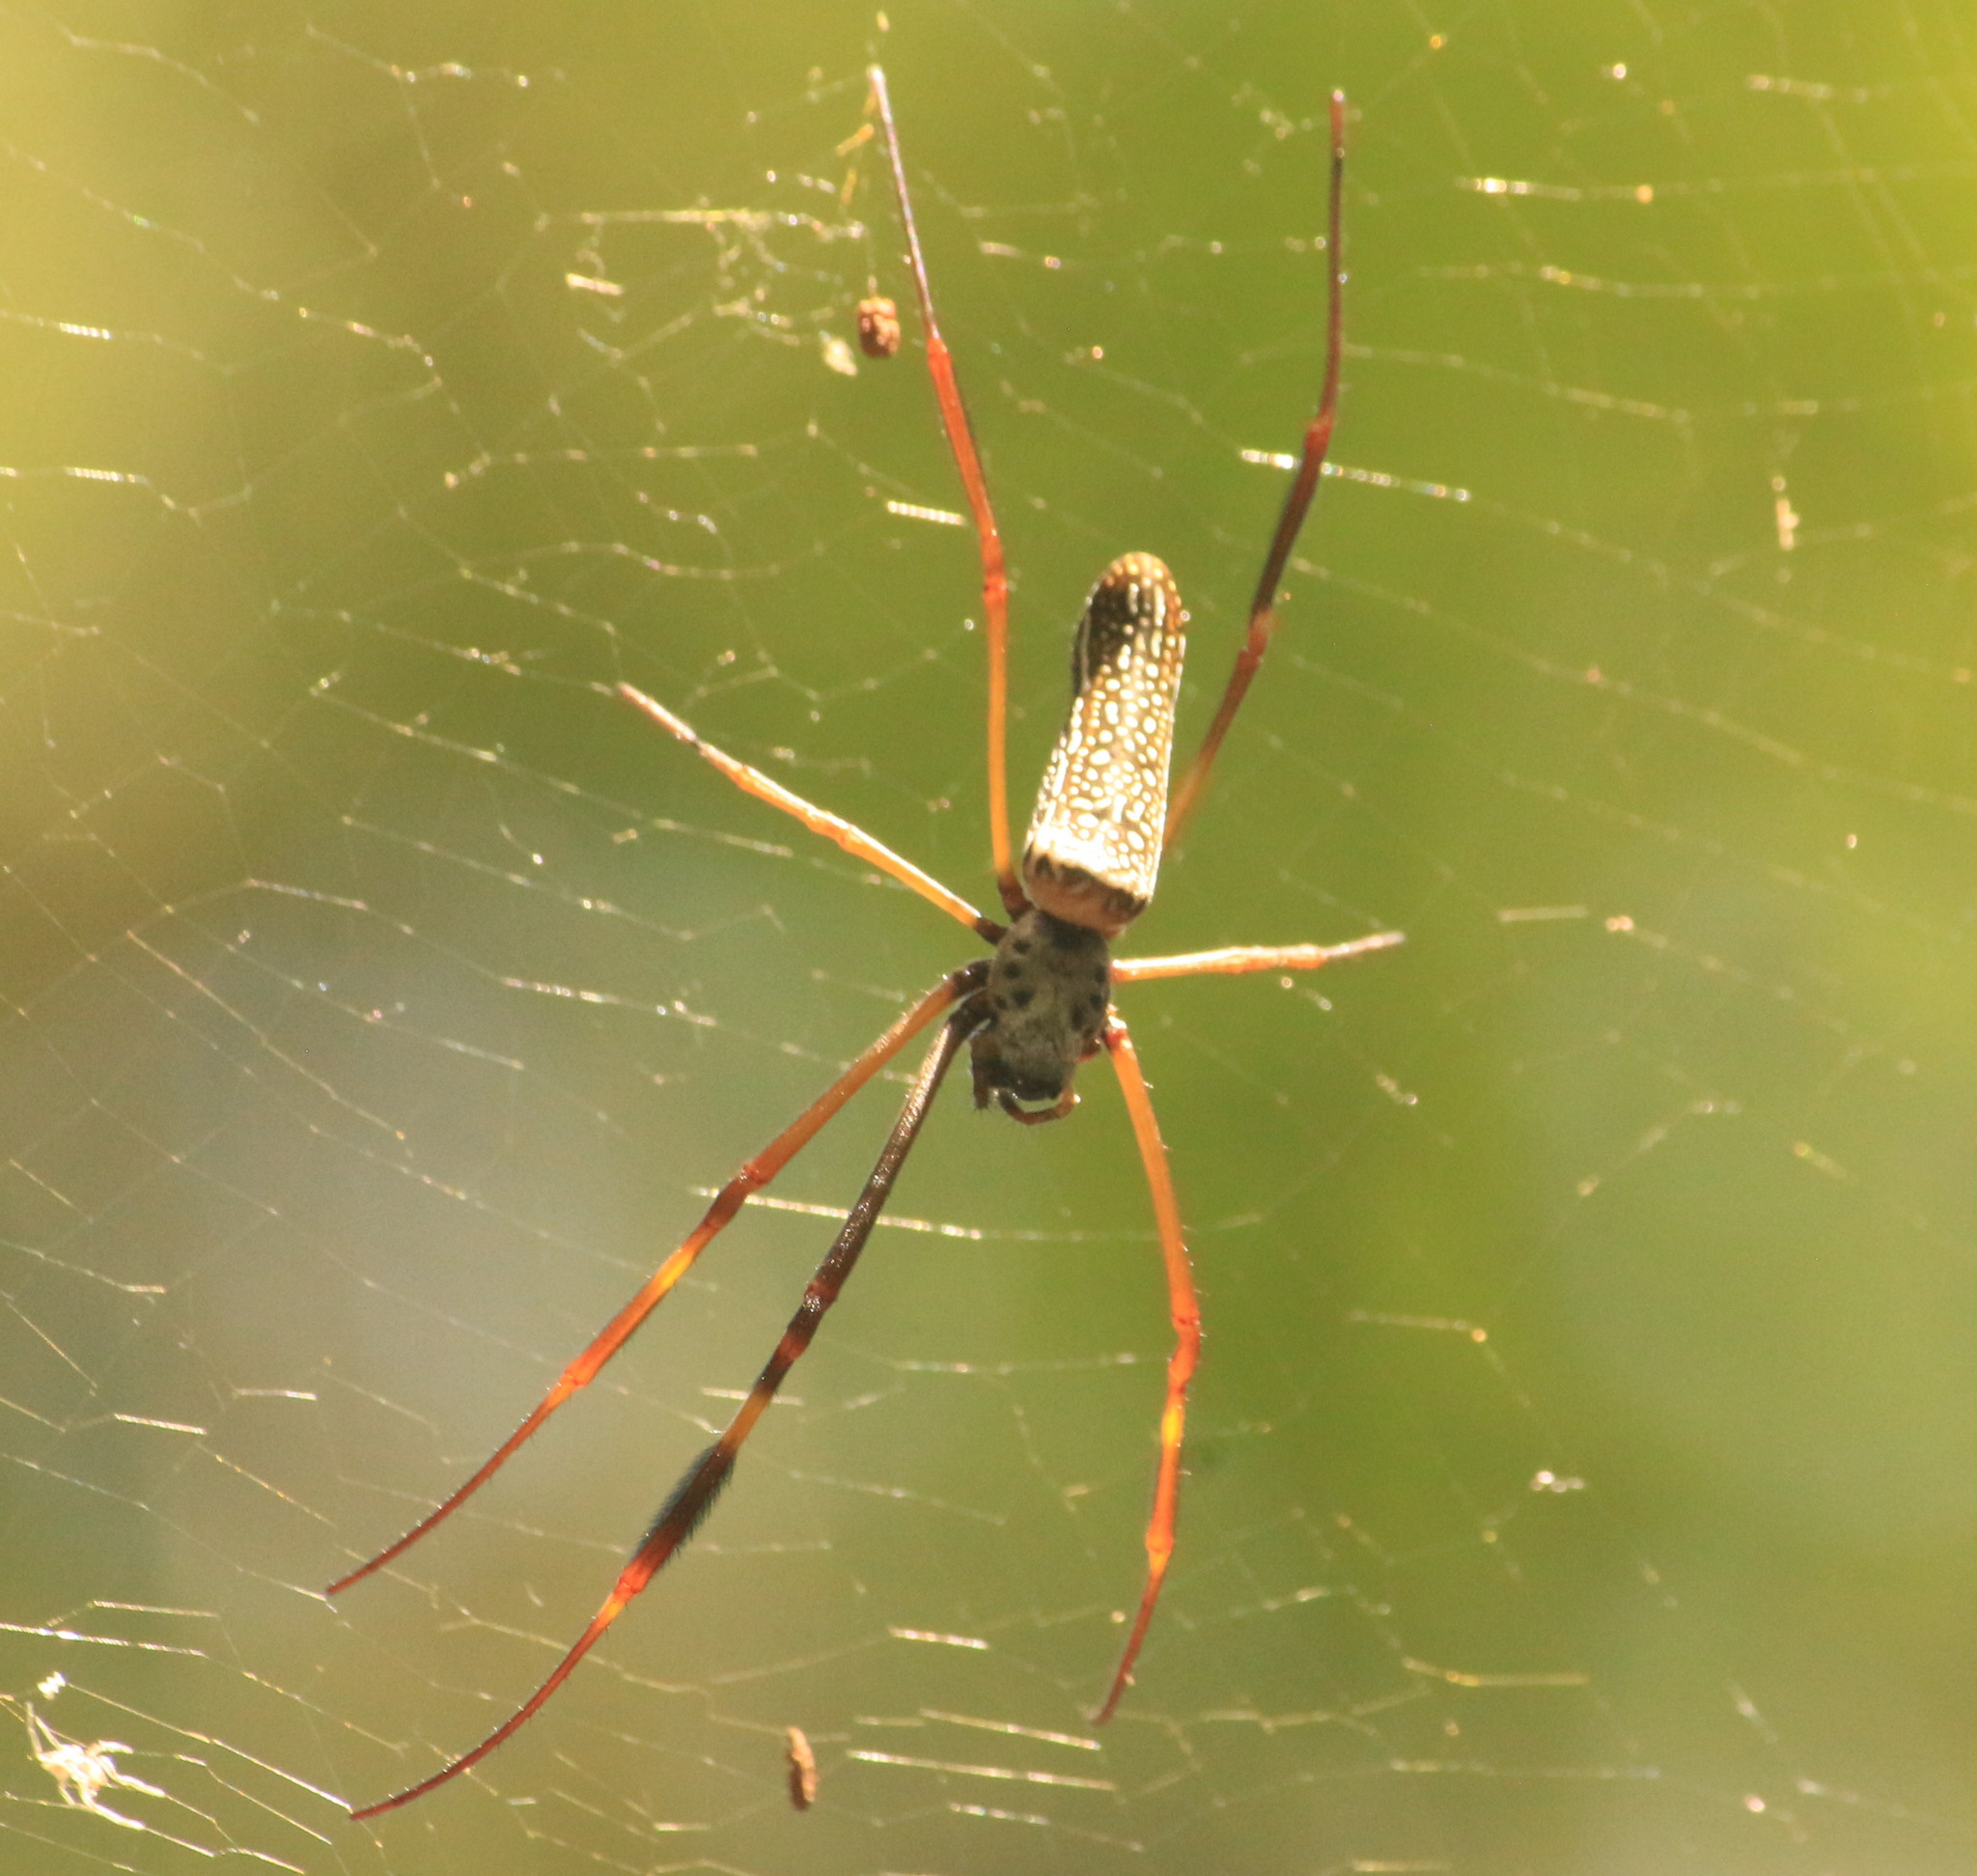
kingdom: Animalia
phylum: Arthropoda
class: Arachnida
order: Araneae
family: Araneidae
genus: Trichonephila
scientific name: Trichonephila clavipes
